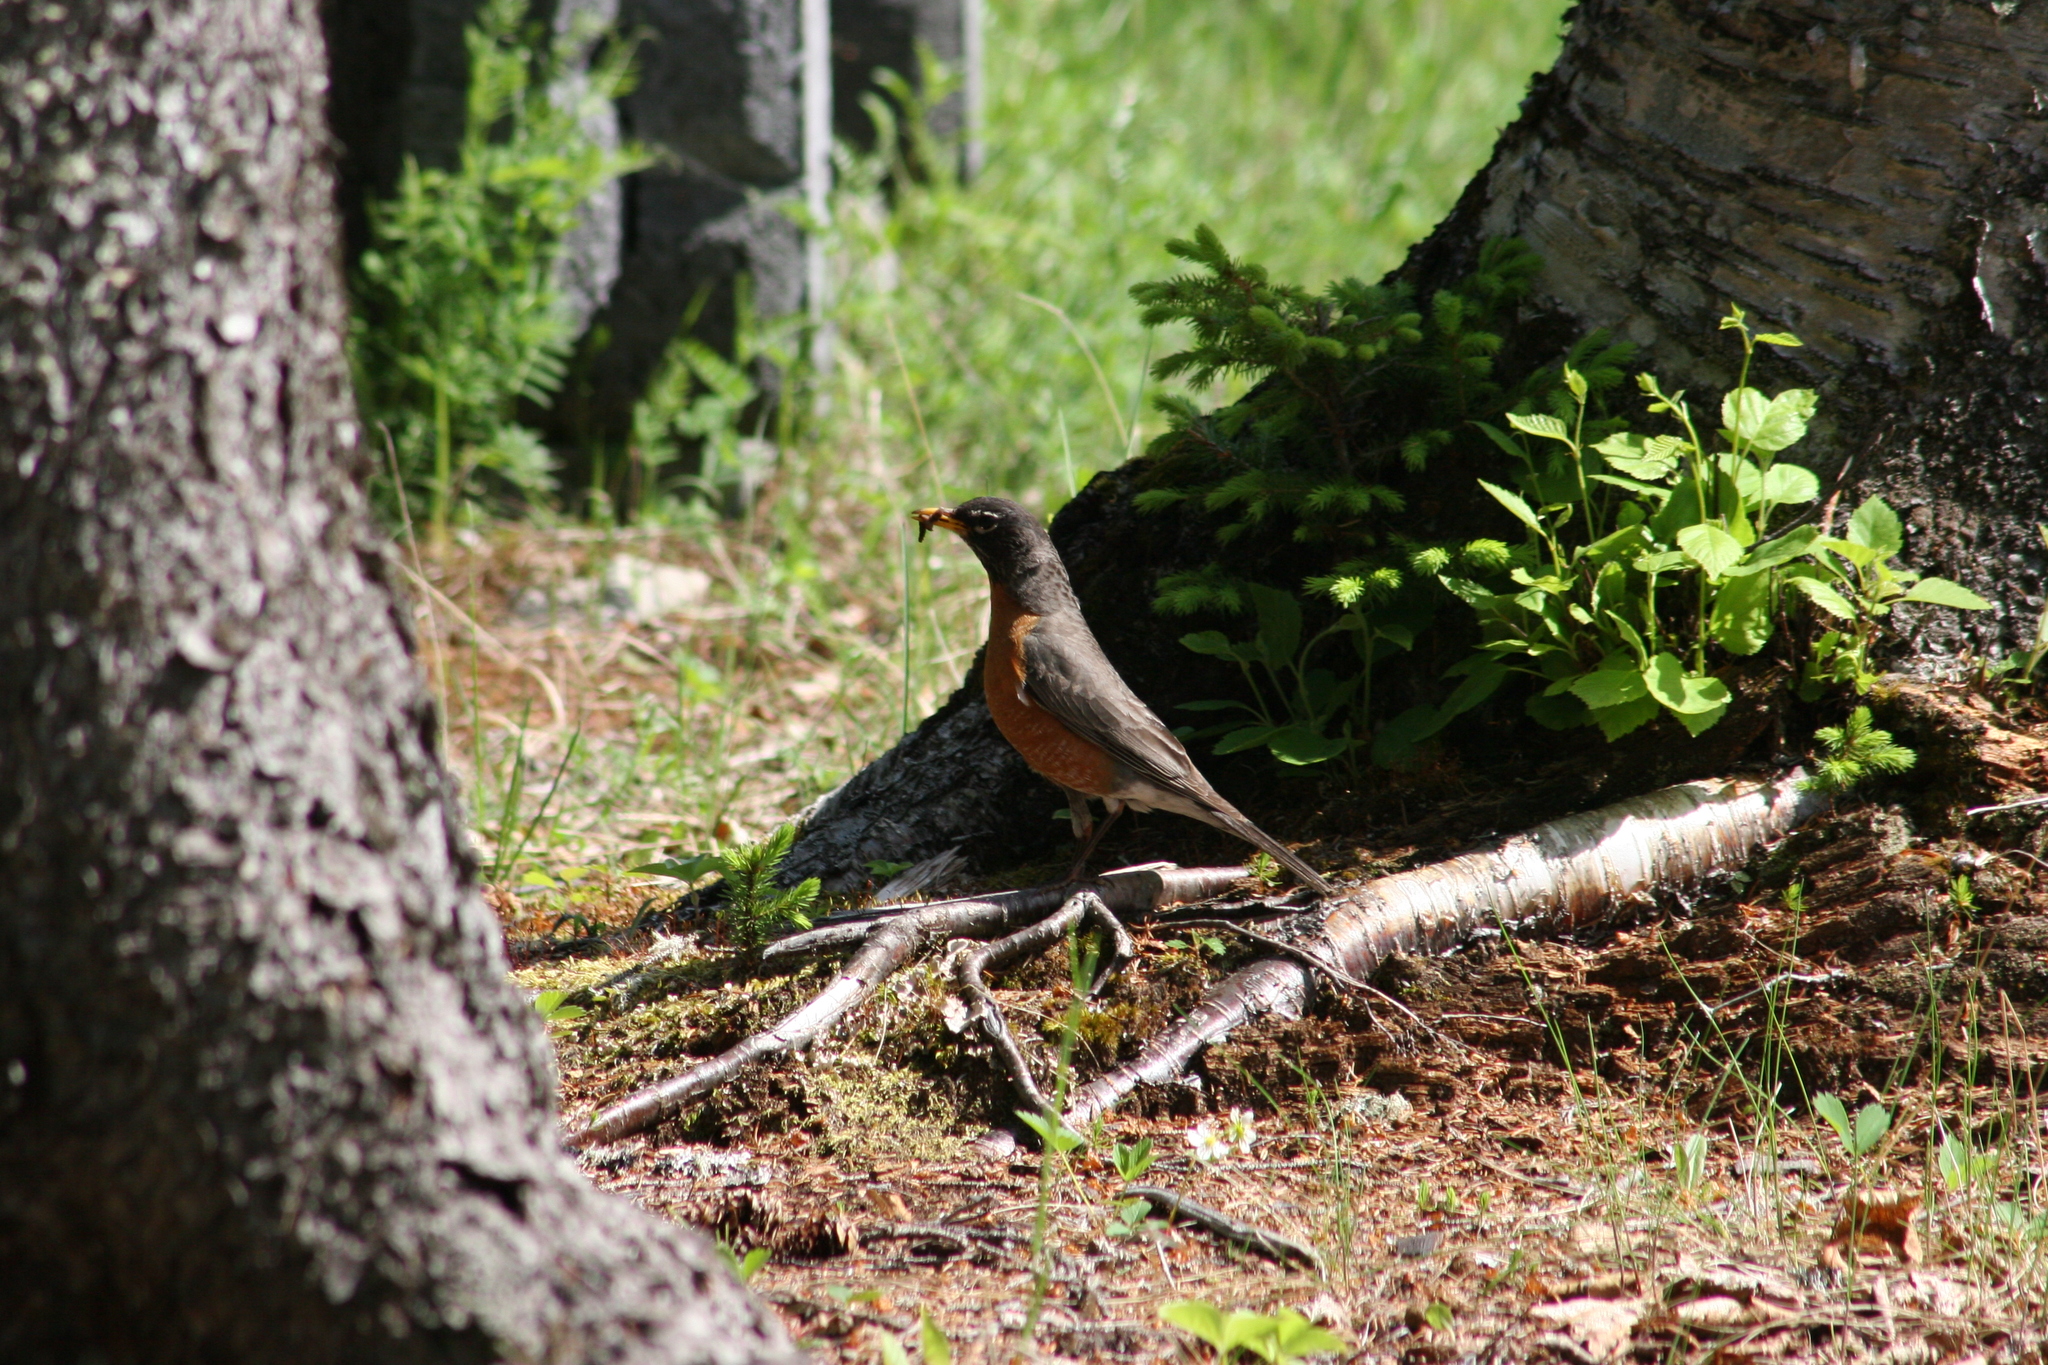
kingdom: Animalia
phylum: Chordata
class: Aves
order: Passeriformes
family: Turdidae
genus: Turdus
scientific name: Turdus migratorius
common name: American robin
